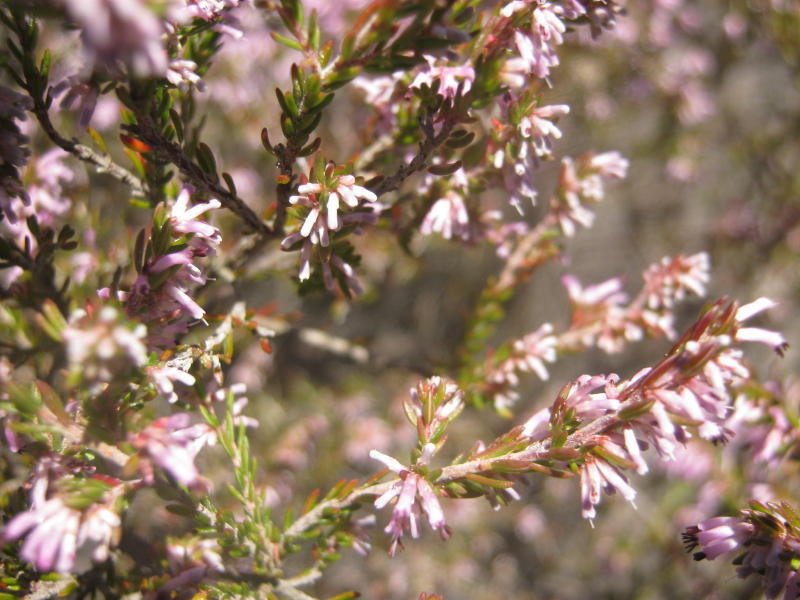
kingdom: Plantae
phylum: Tracheophyta
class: Magnoliopsida
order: Ericales
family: Ericaceae
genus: Erica
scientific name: Erica uberiflora
